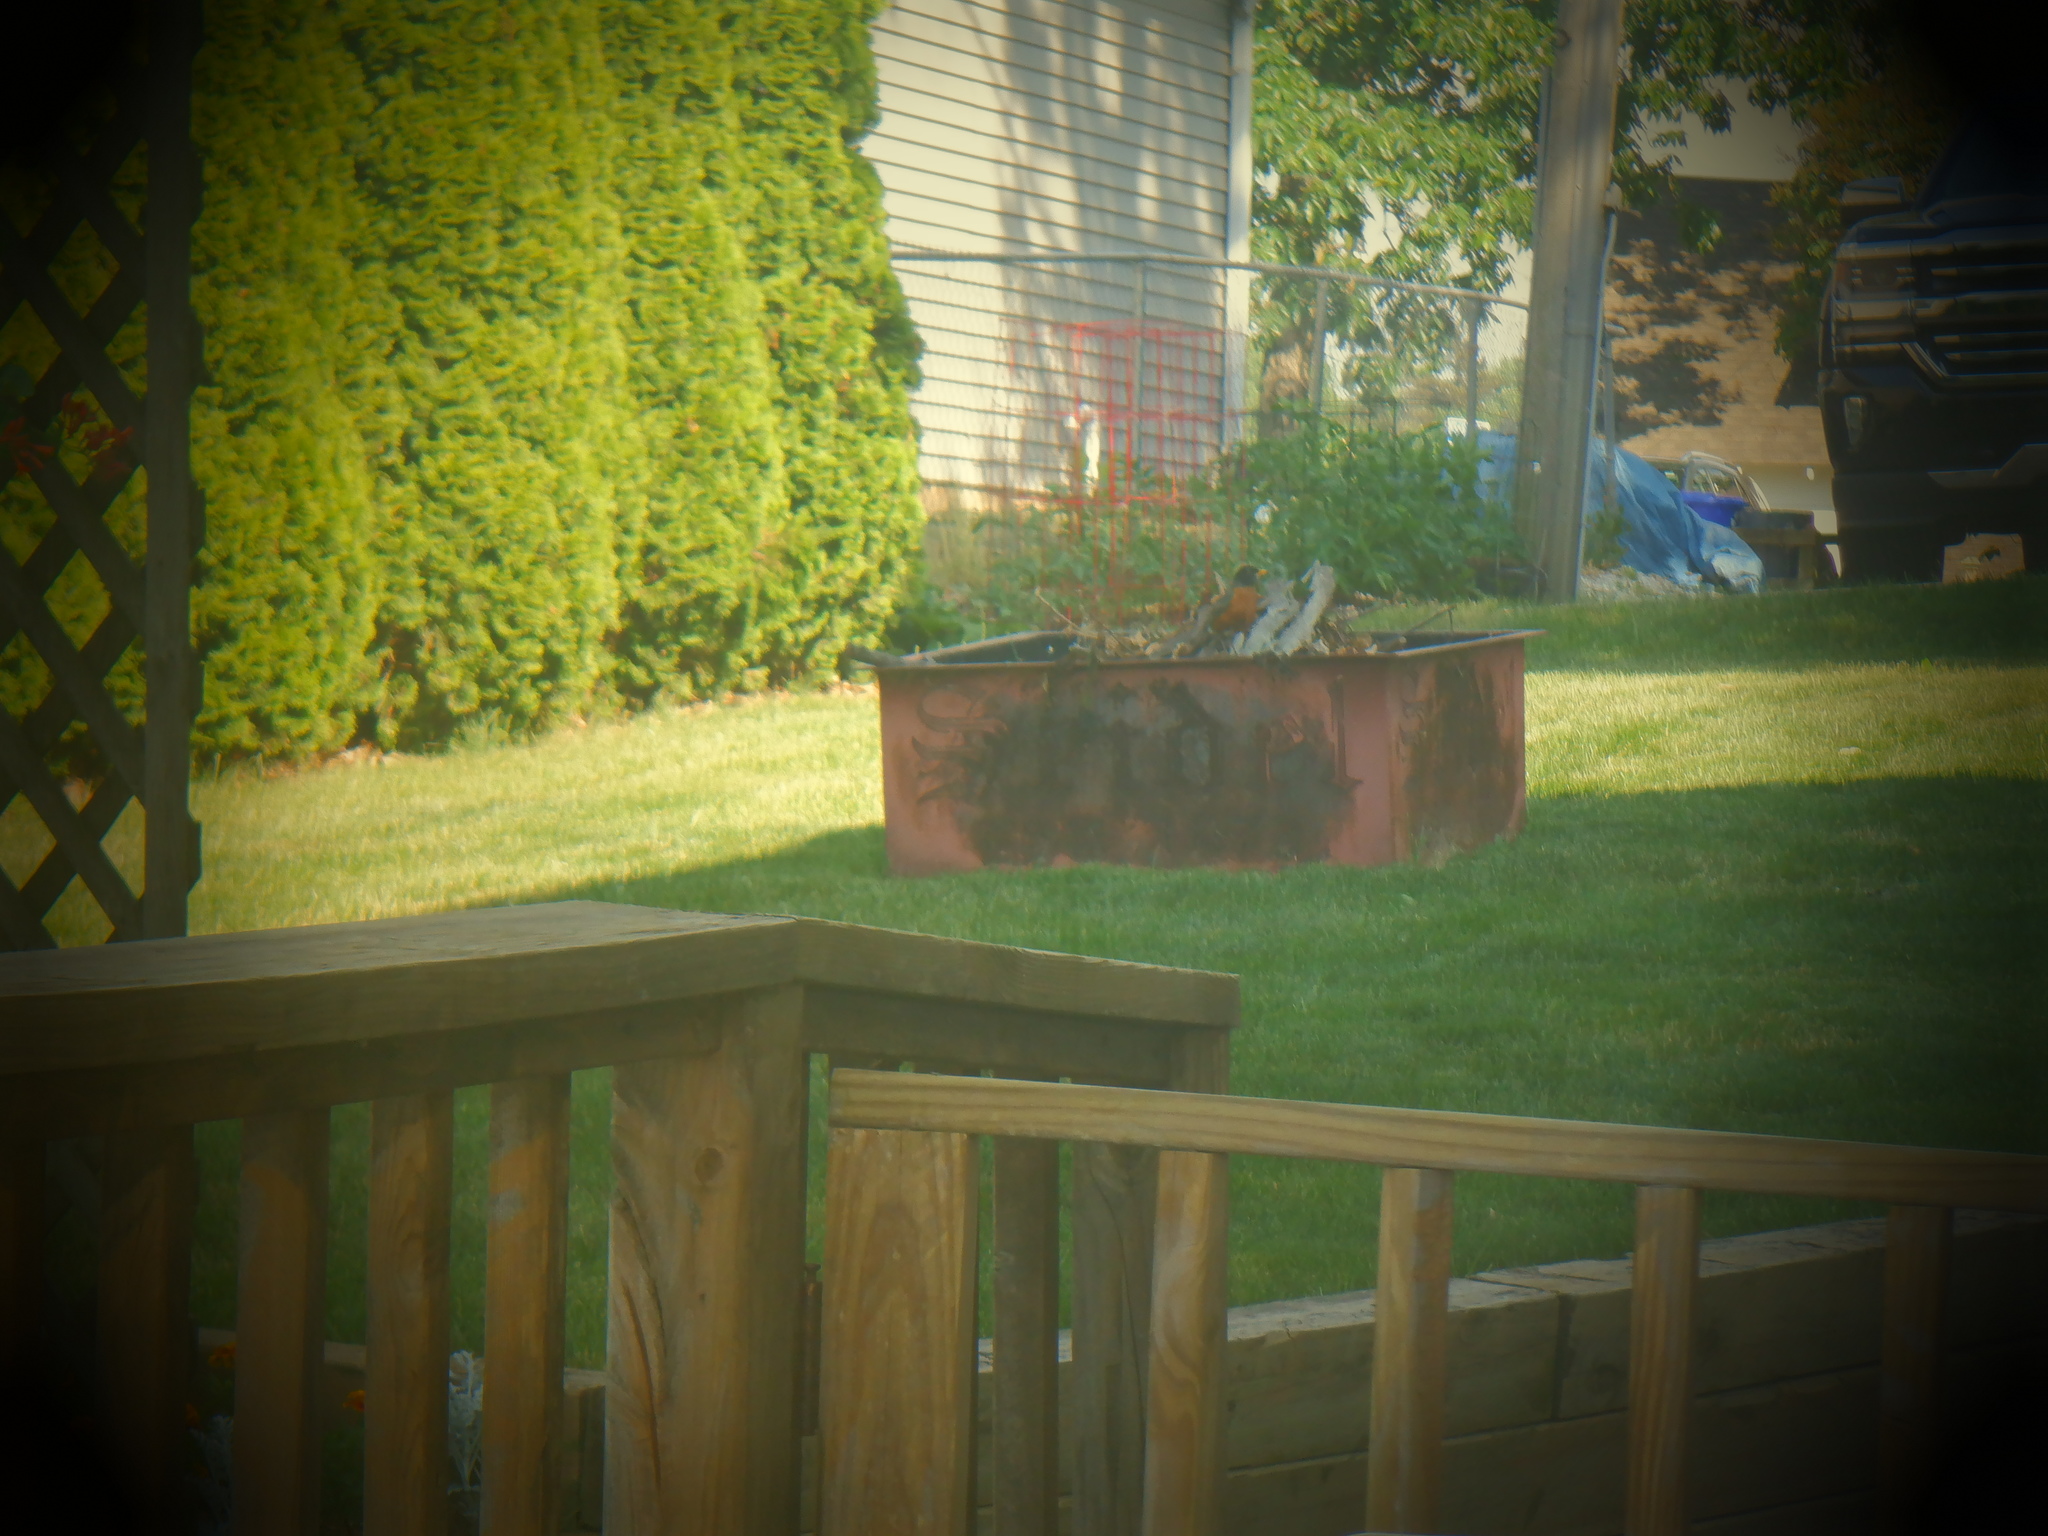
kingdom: Animalia
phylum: Chordata
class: Aves
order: Passeriformes
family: Turdidae
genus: Turdus
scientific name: Turdus migratorius
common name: American robin
